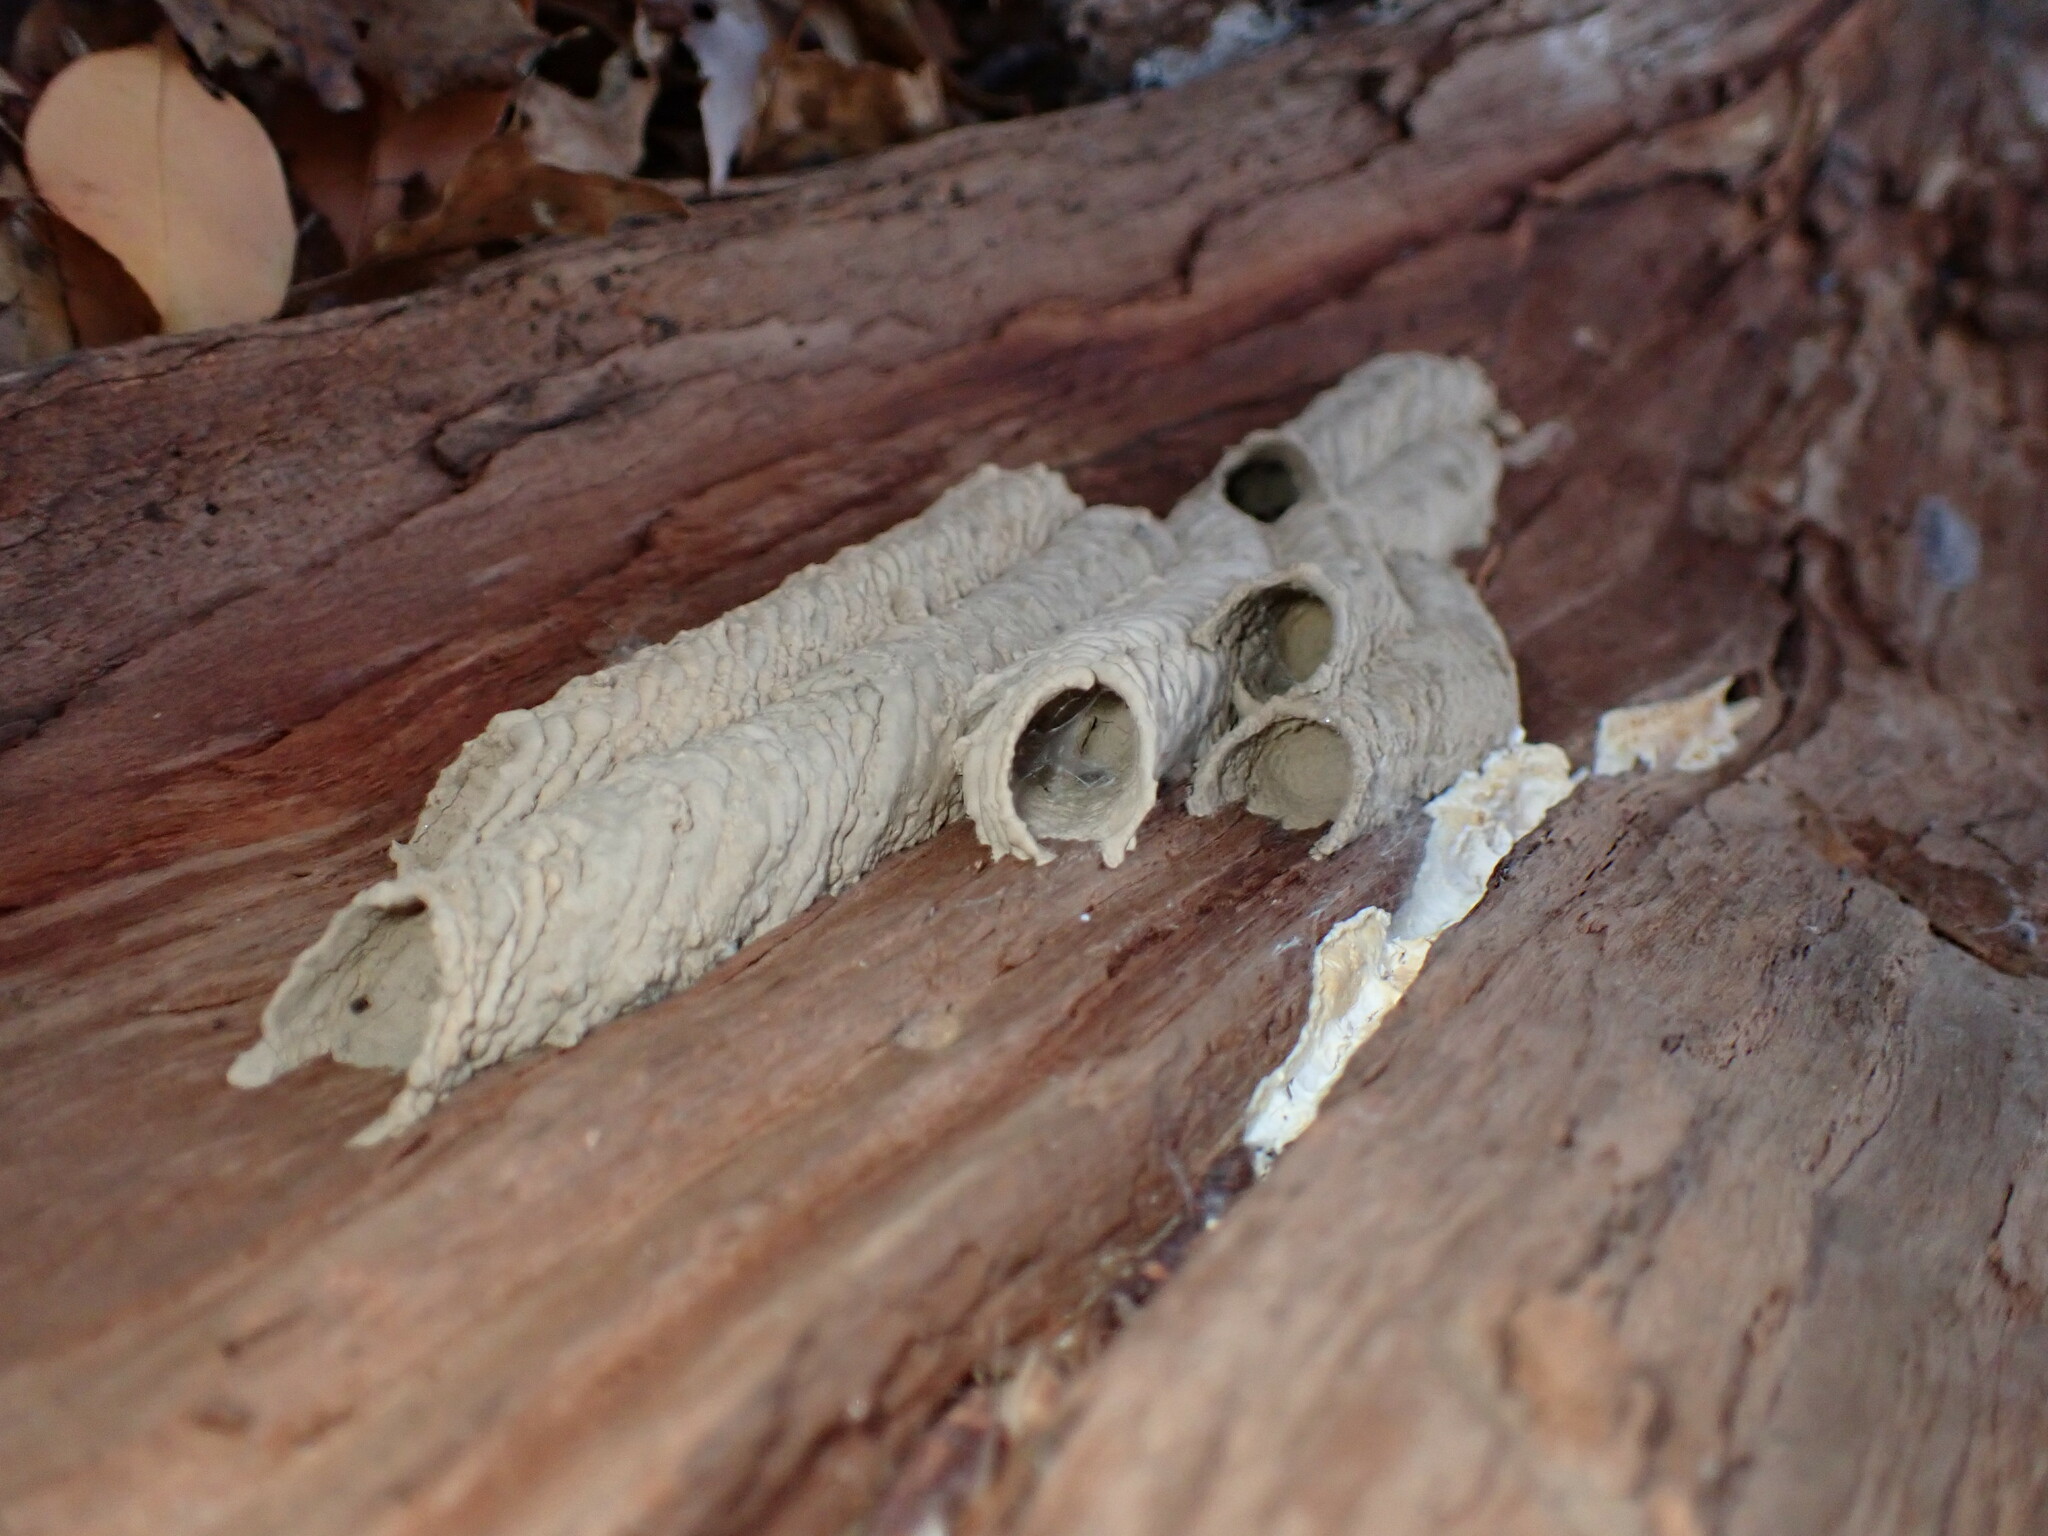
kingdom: Animalia
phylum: Arthropoda
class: Insecta
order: Hymenoptera
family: Crabronidae
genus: Trypoxylon
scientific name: Trypoxylon politum
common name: Organ-pipe mud-dauber wasp
